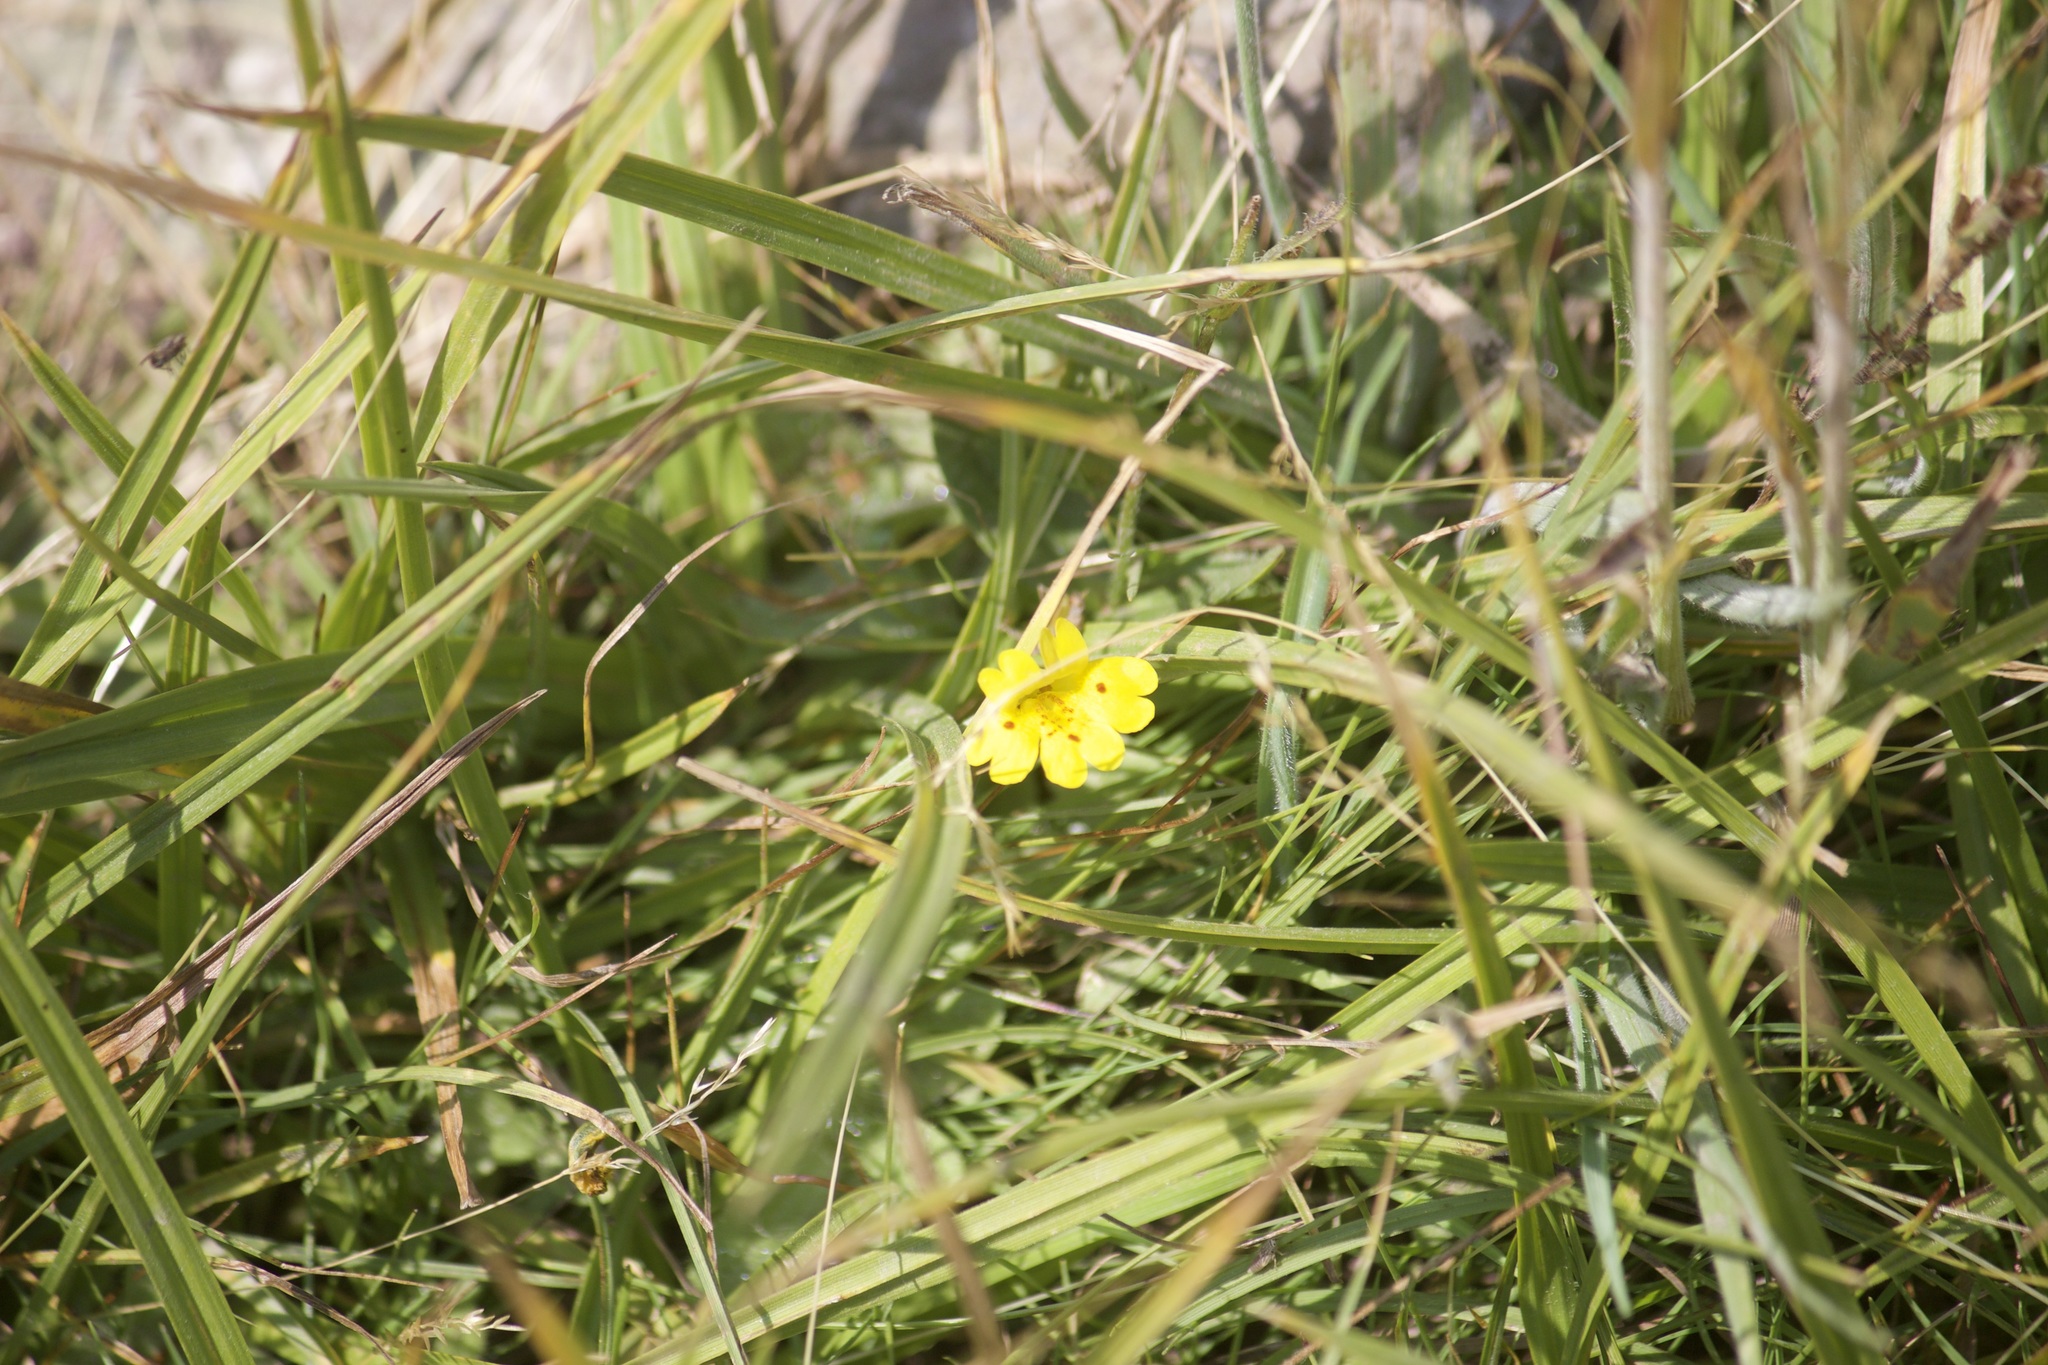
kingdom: Plantae
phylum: Tracheophyta
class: Magnoliopsida
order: Lamiales
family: Phrymaceae
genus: Erythranthe
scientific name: Erythranthe primuloides
